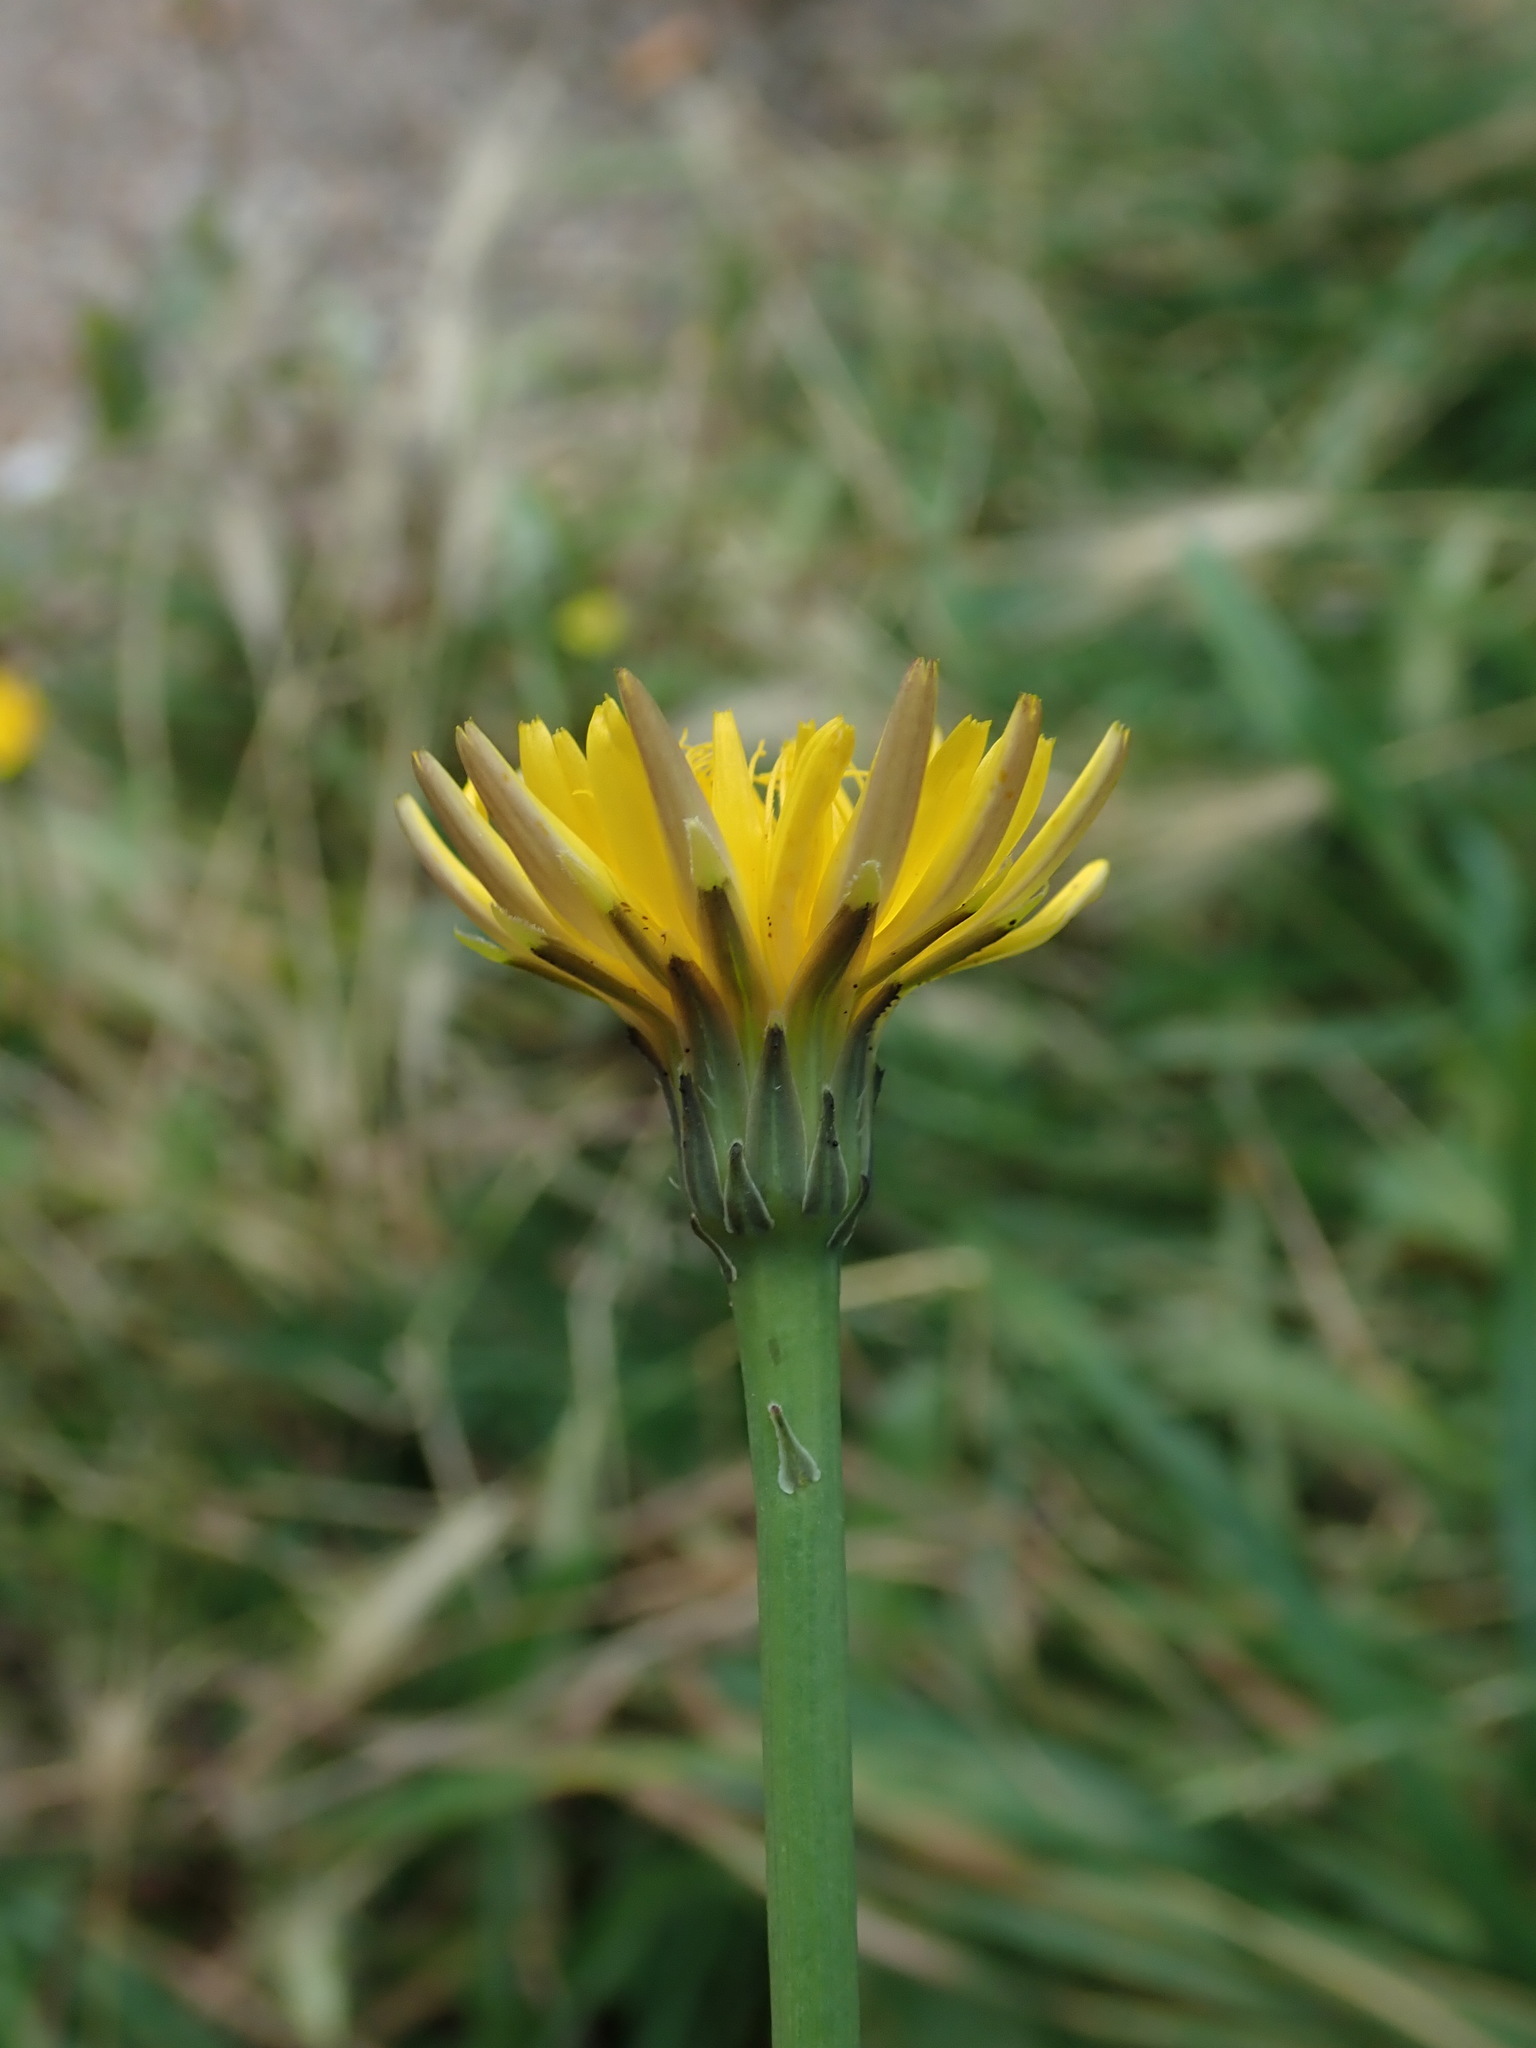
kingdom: Plantae
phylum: Tracheophyta
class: Magnoliopsida
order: Asterales
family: Asteraceae
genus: Hypochaeris
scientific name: Hypochaeris radicata
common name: Flatweed
